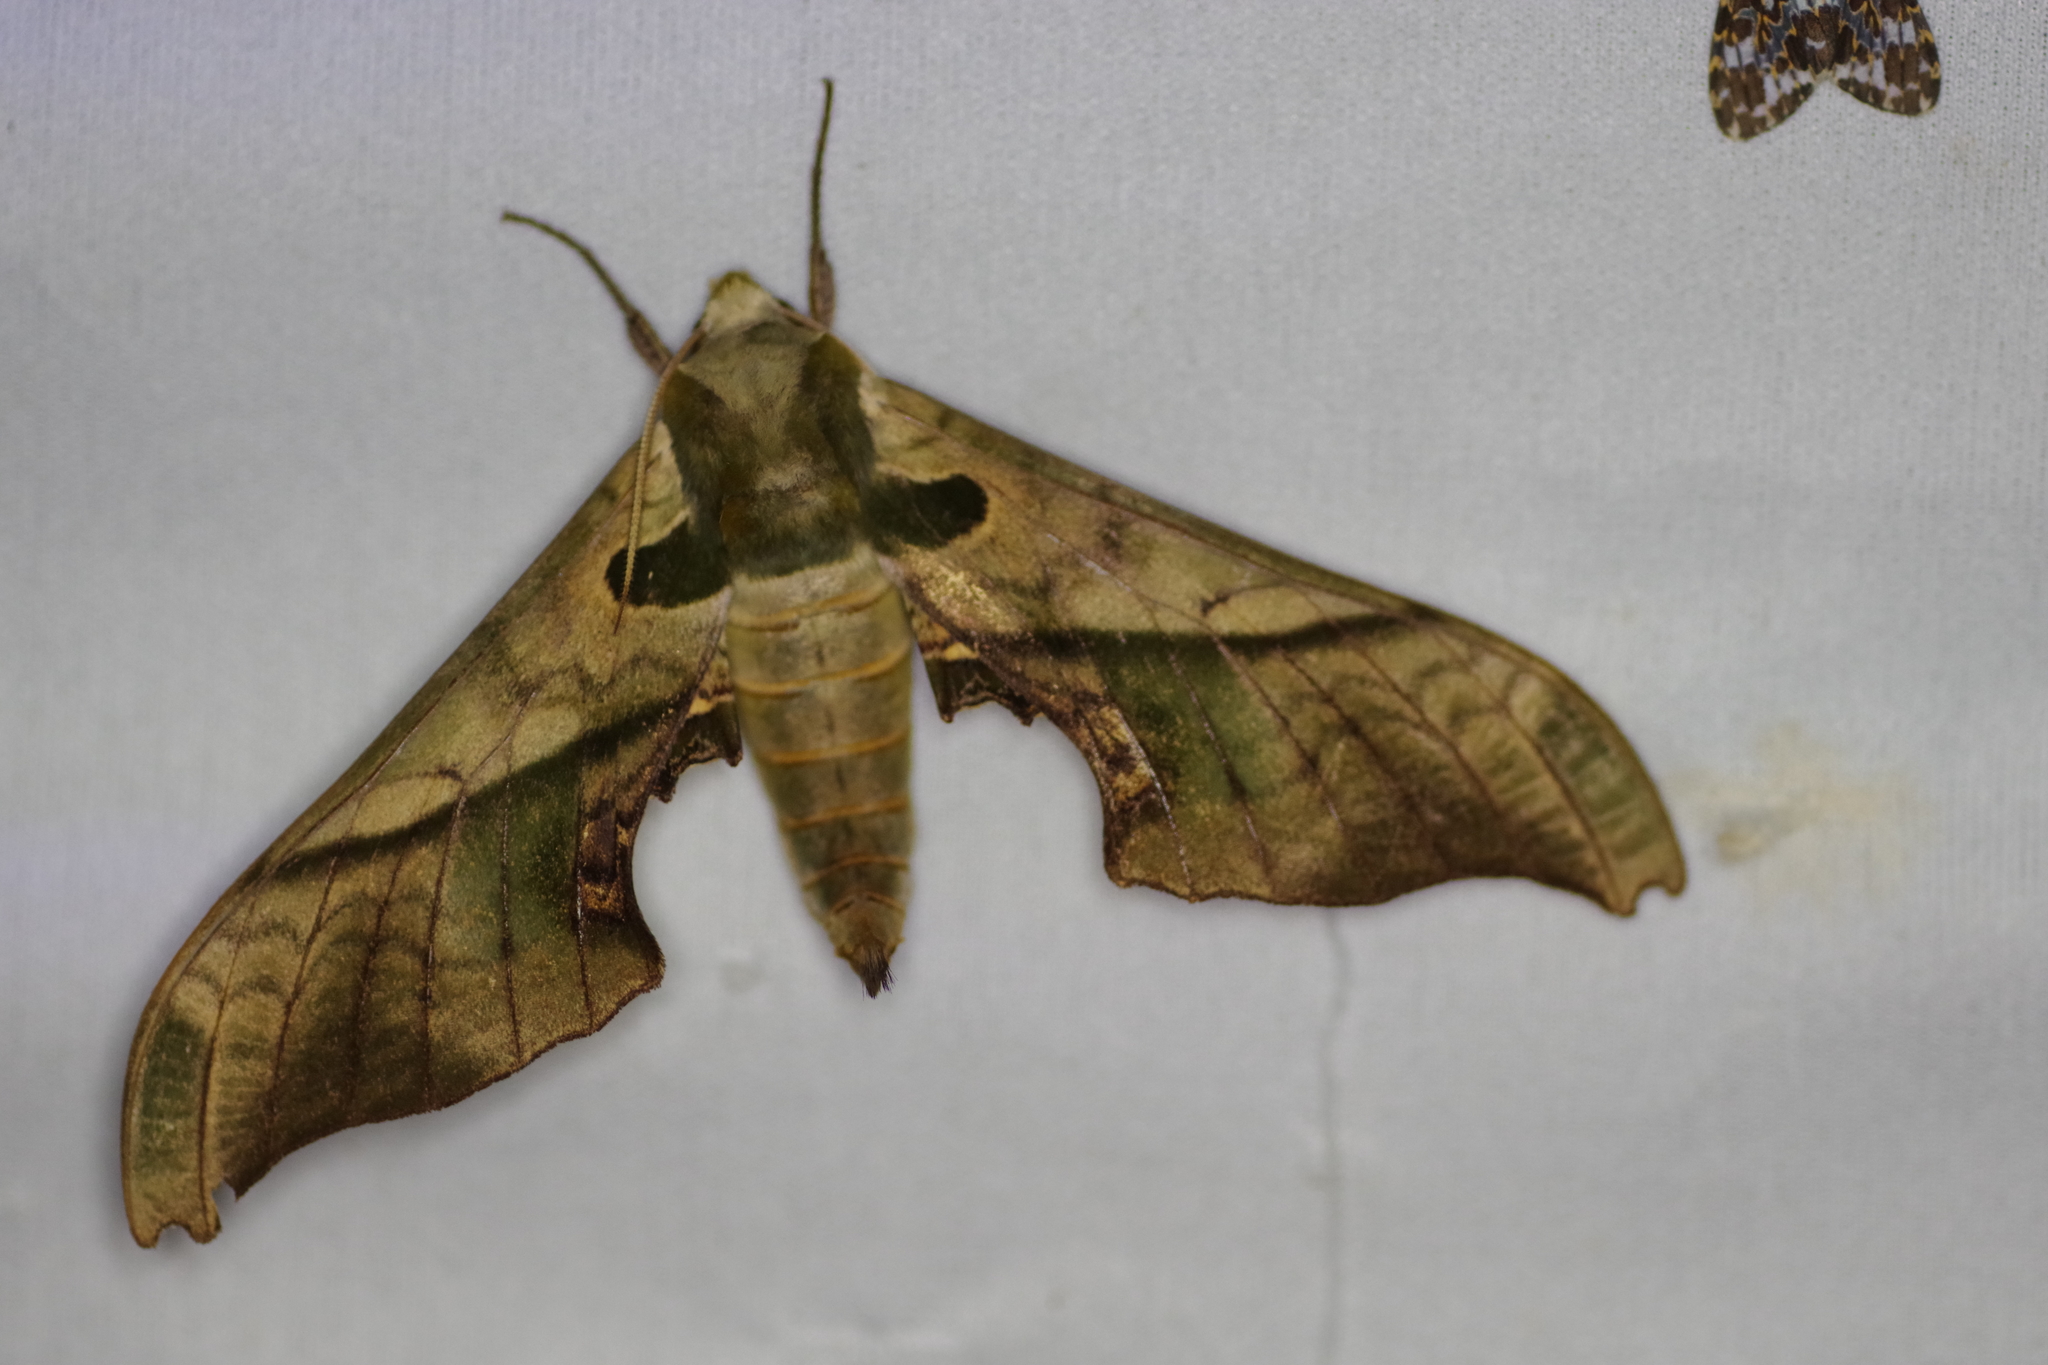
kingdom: Animalia
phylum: Arthropoda
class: Insecta
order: Lepidoptera
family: Sphingidae
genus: Adhemarius
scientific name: Adhemarius dariensis
